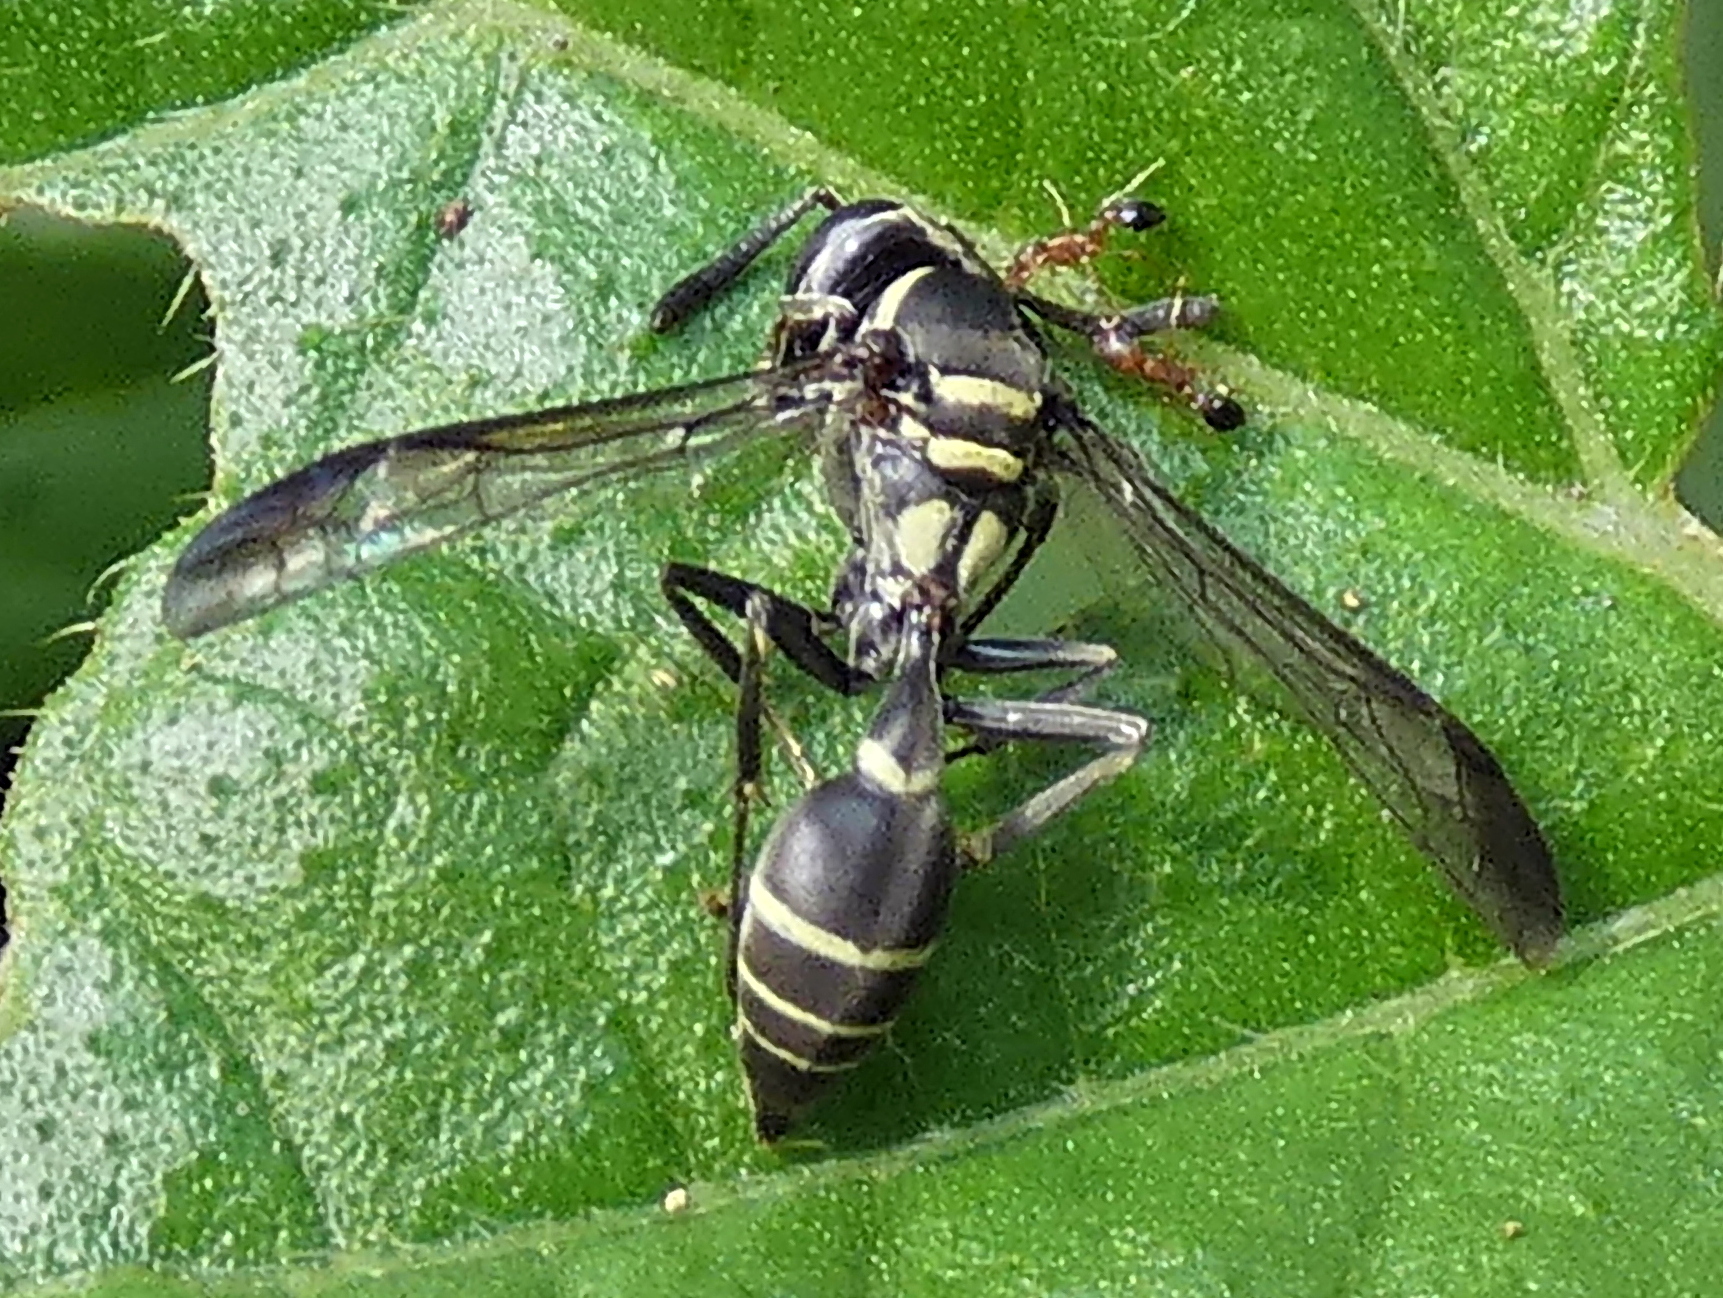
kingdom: Animalia
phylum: Arthropoda
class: Insecta
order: Hymenoptera
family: Eumenidae
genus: Polybia
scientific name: Polybia occidentalis
